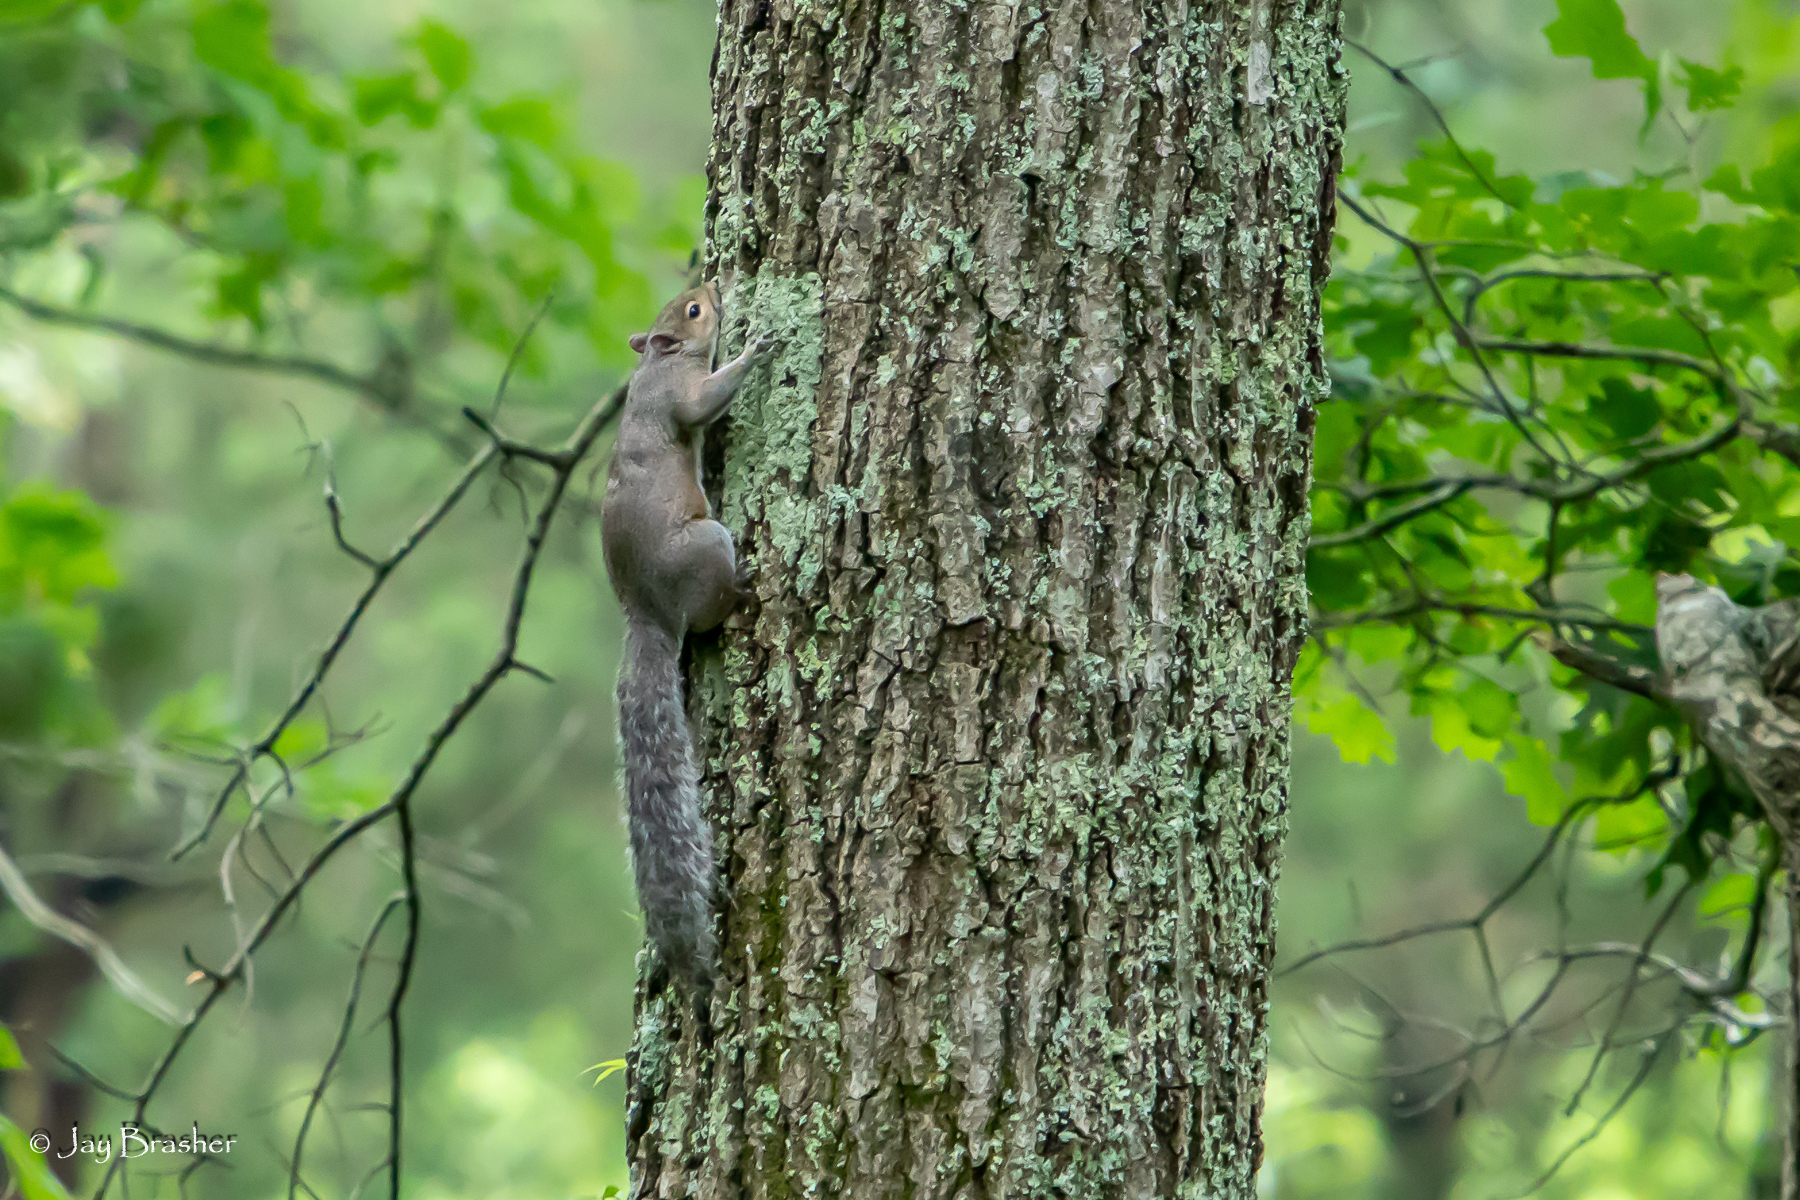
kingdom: Animalia
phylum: Chordata
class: Mammalia
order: Rodentia
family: Sciuridae
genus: Sciurus
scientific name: Sciurus carolinensis
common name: Eastern gray squirrel
